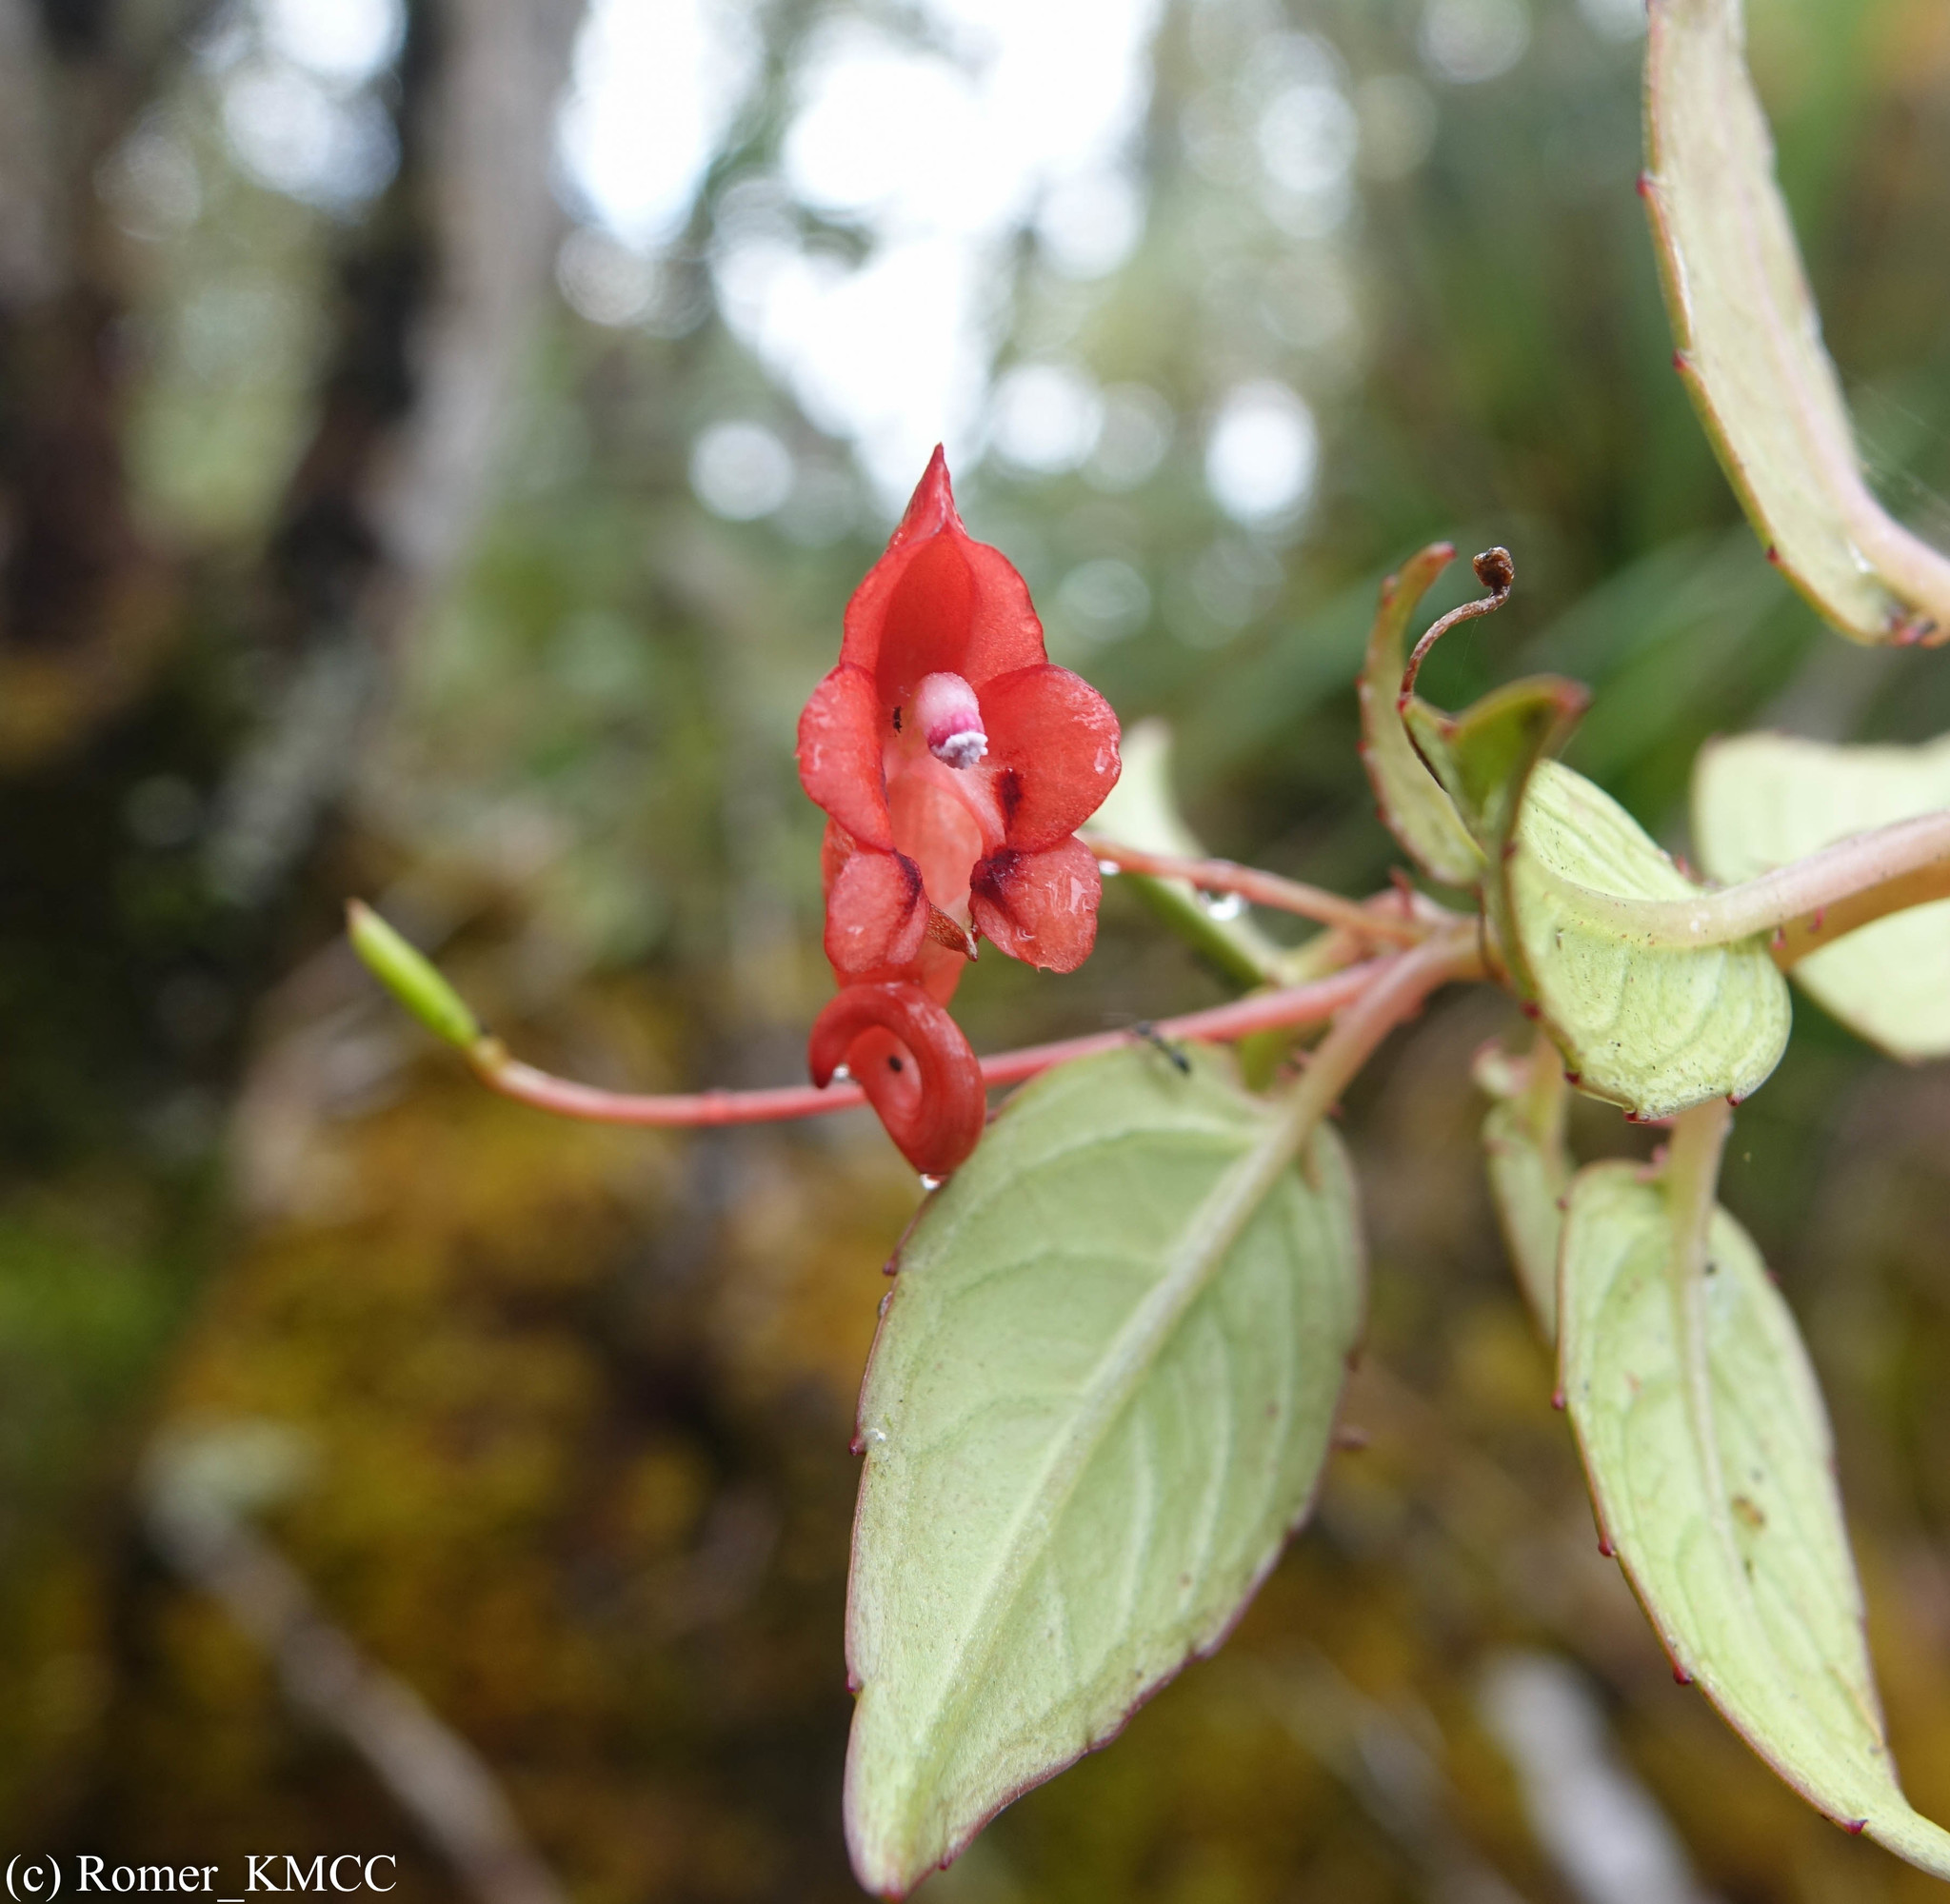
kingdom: Plantae
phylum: Tracheophyta
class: Magnoliopsida
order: Ericales
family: Balsaminaceae
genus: Impatiens
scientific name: Impatiens renae
